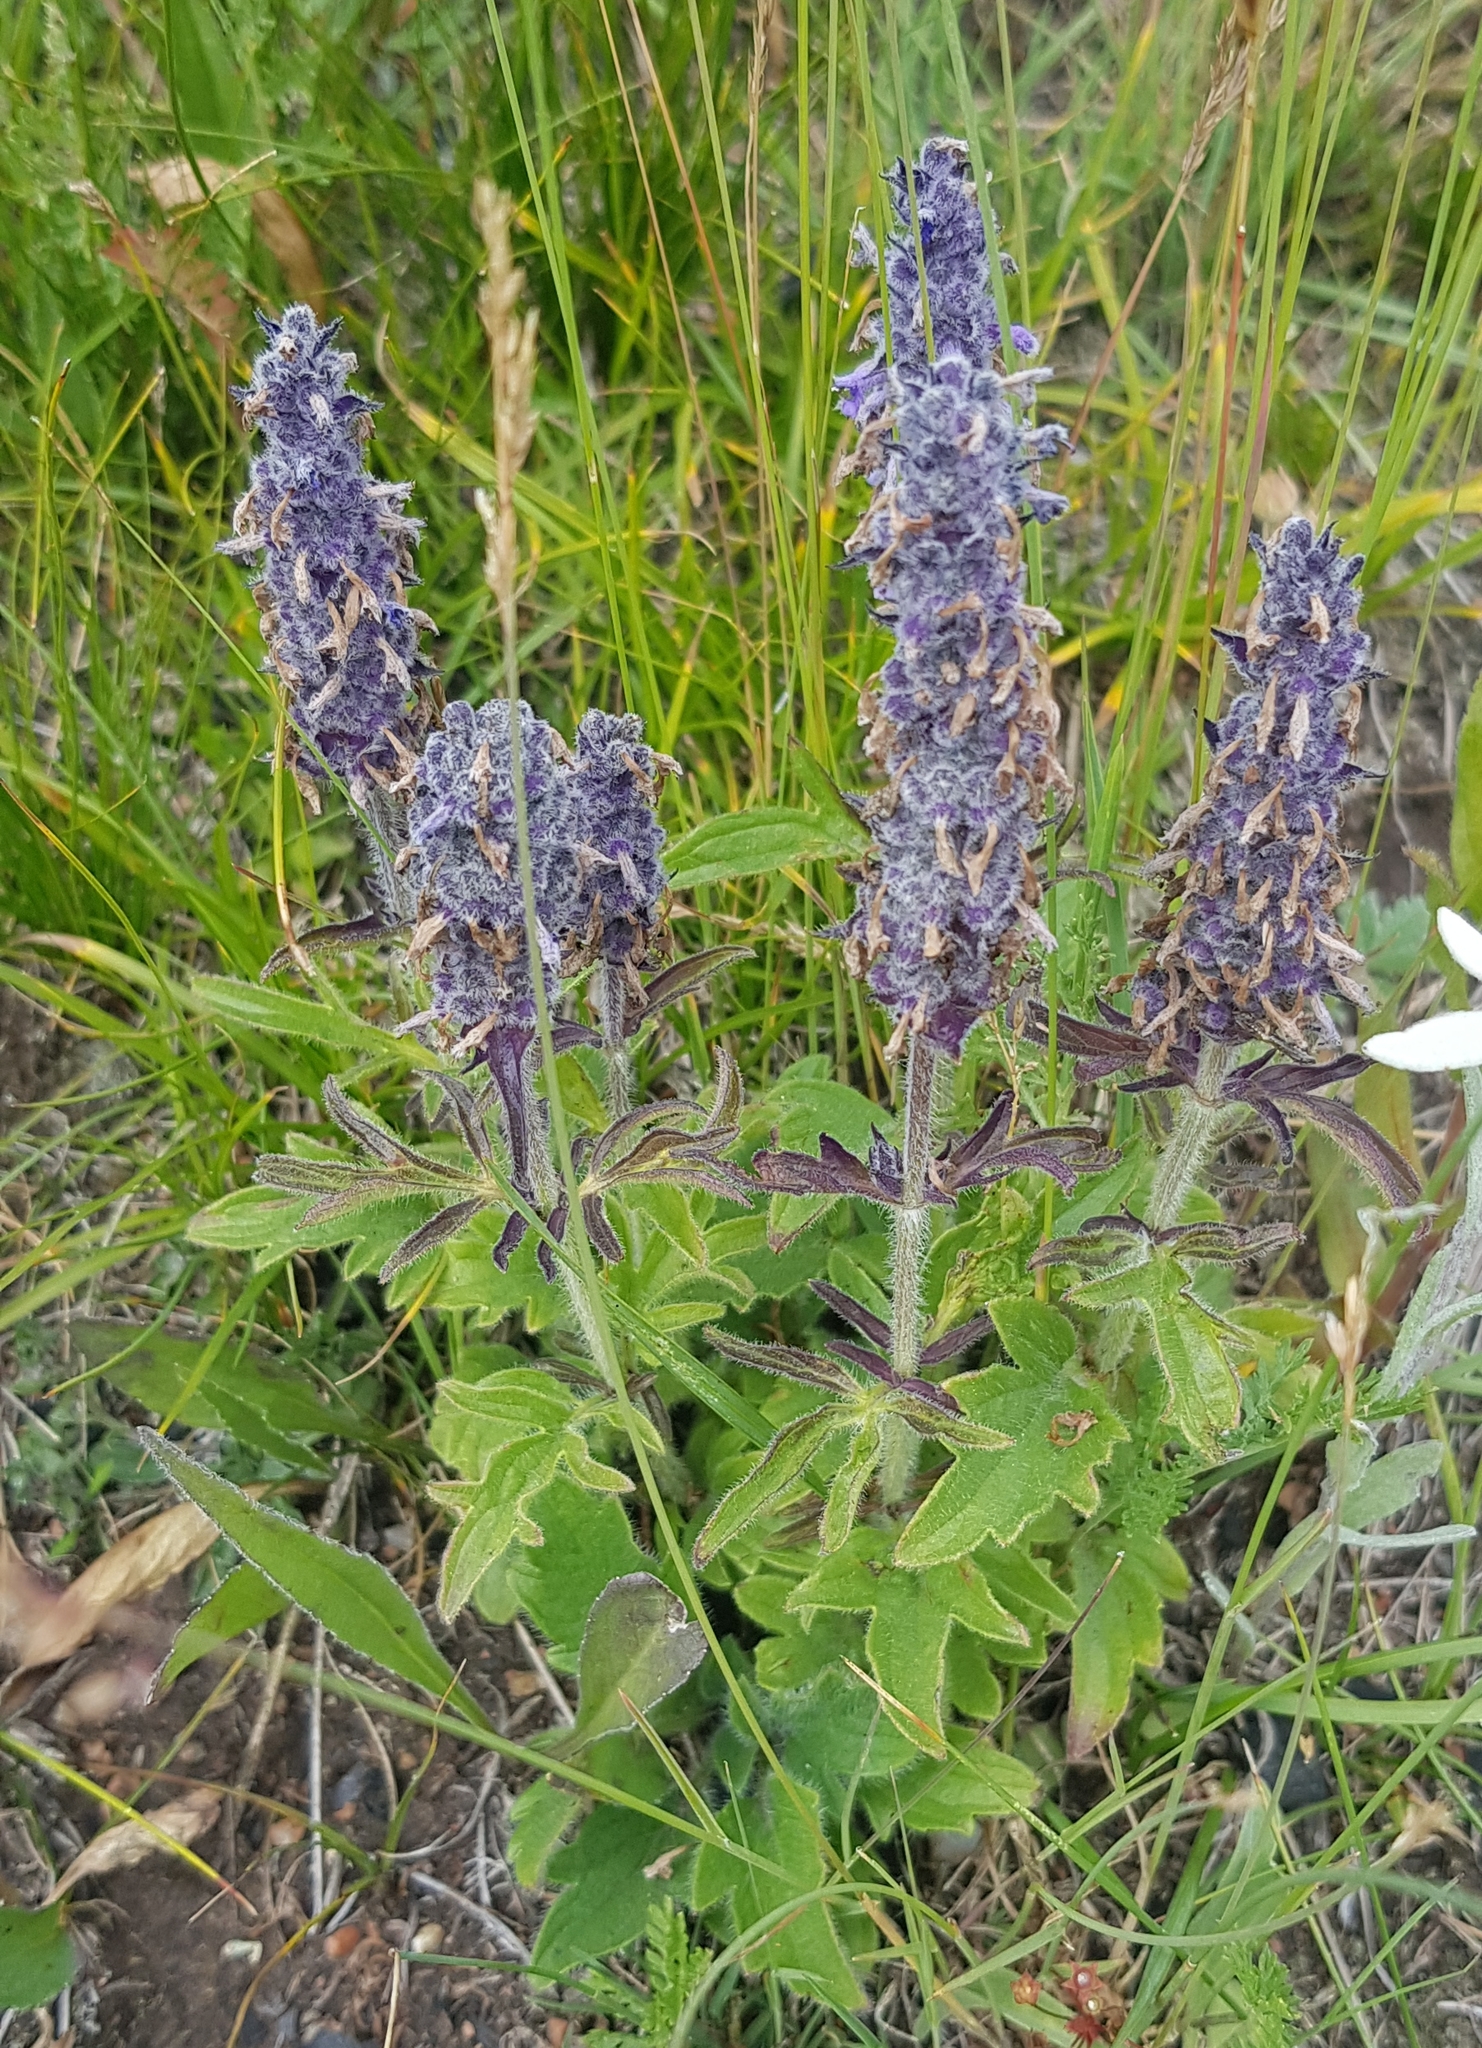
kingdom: Plantae
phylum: Tracheophyta
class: Magnoliopsida
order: Lamiales
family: Lamiaceae
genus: Nepeta
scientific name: Nepeta multifida
